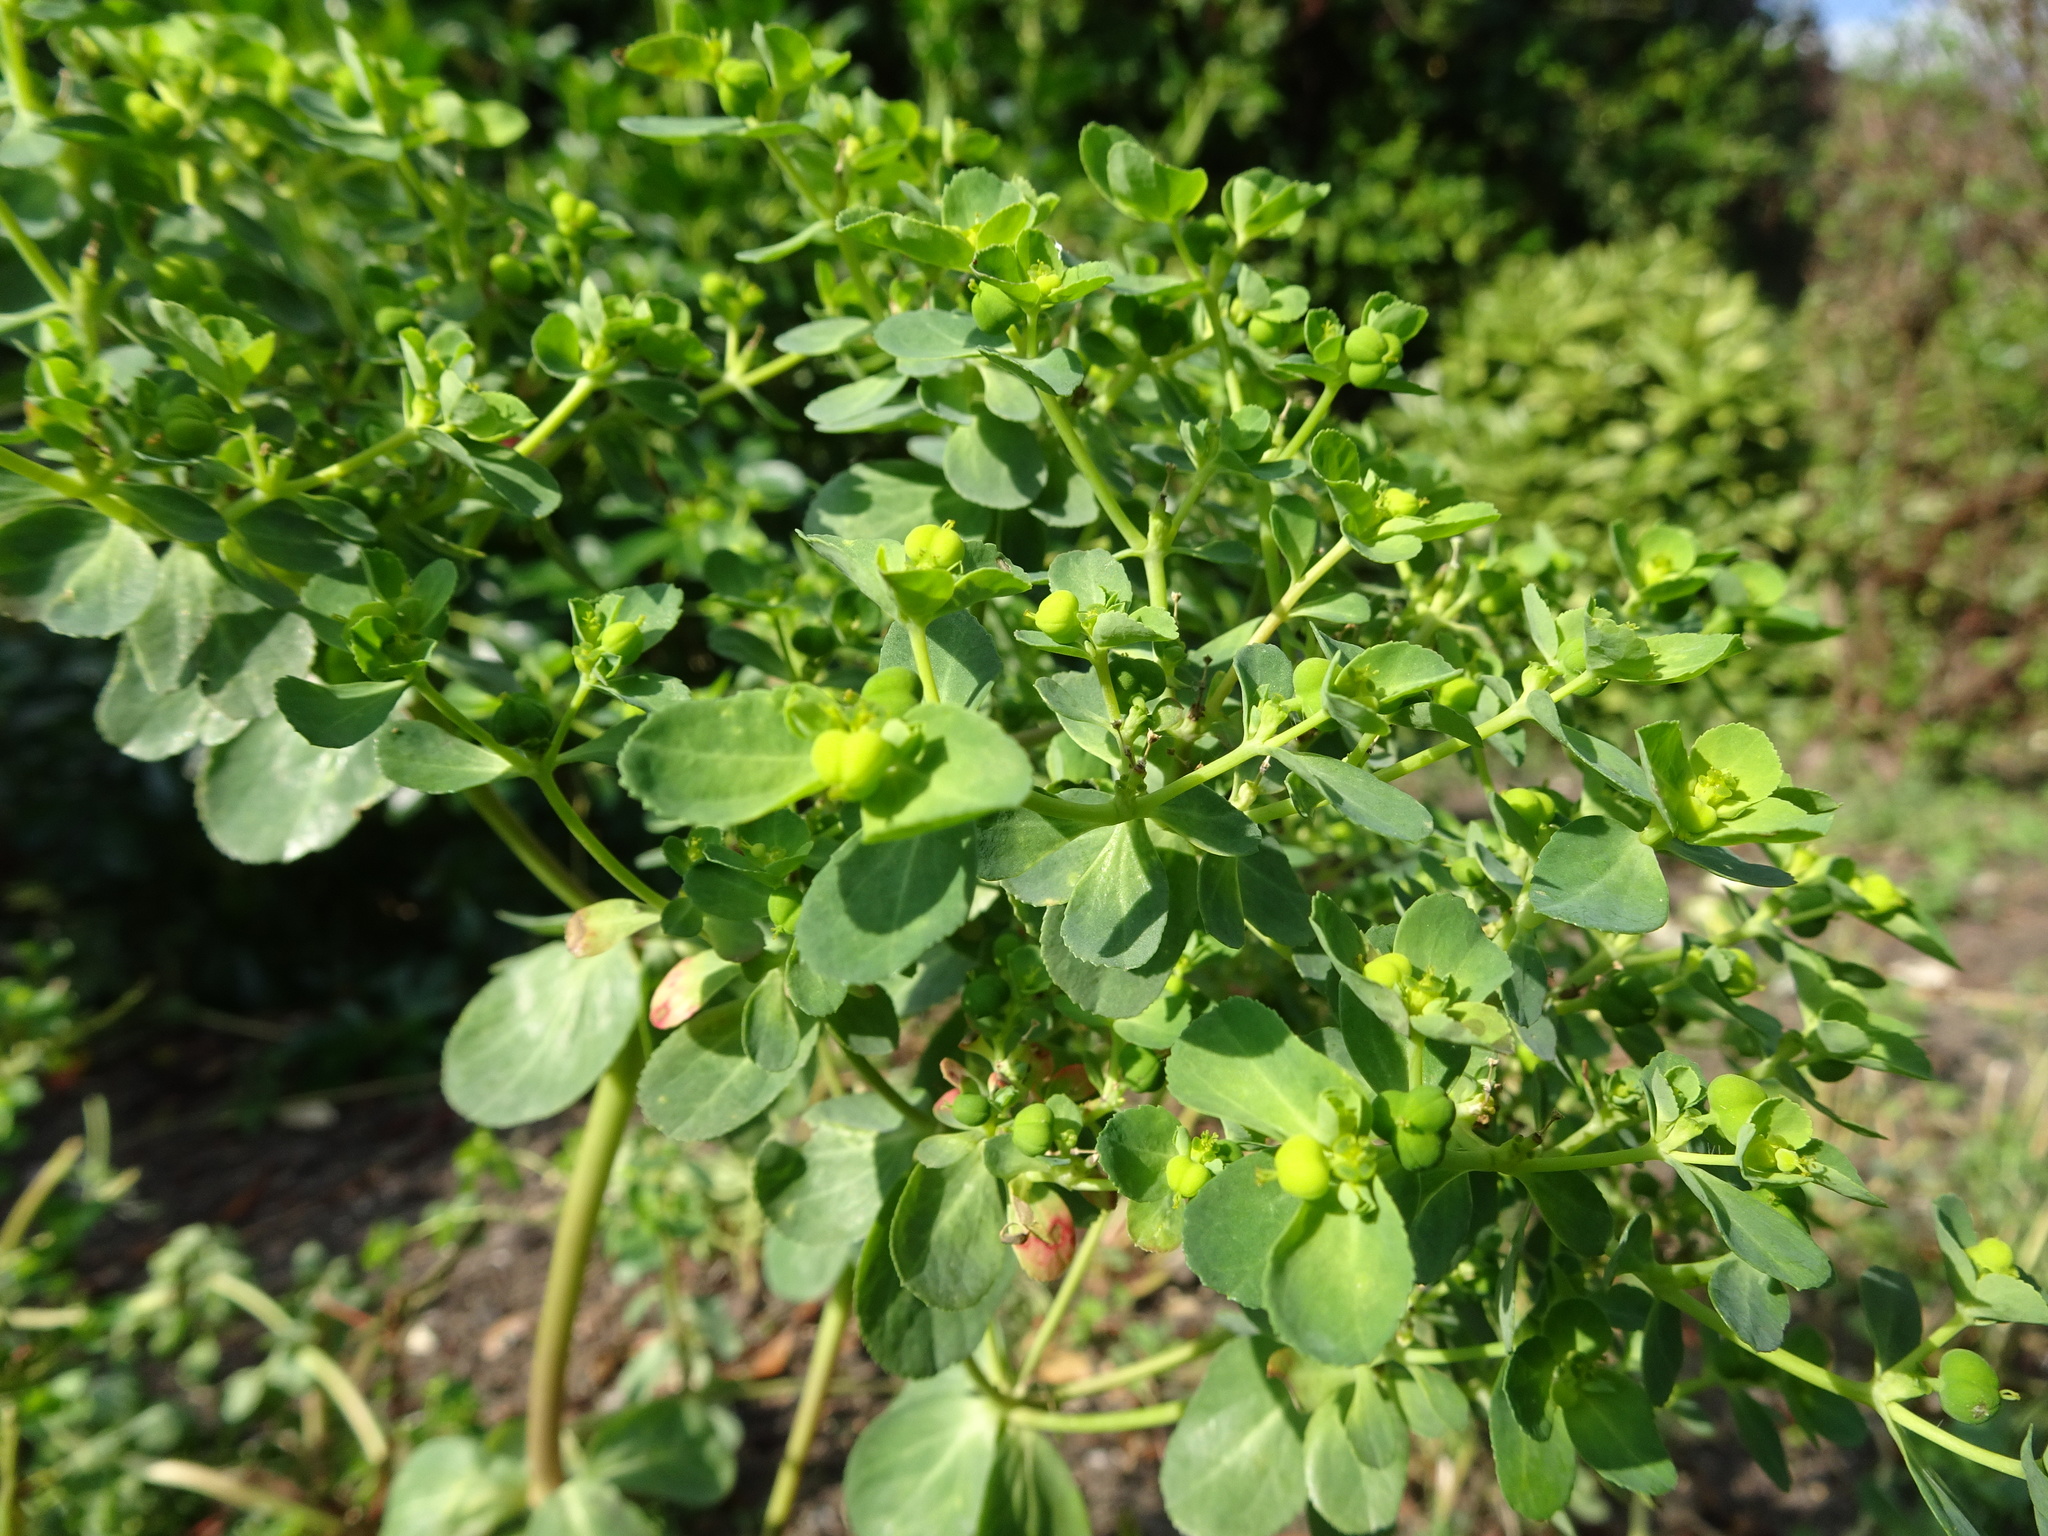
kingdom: Plantae
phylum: Tracheophyta
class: Magnoliopsida
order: Malpighiales
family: Euphorbiaceae
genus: Euphorbia
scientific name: Euphorbia helioscopia
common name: Sun spurge
